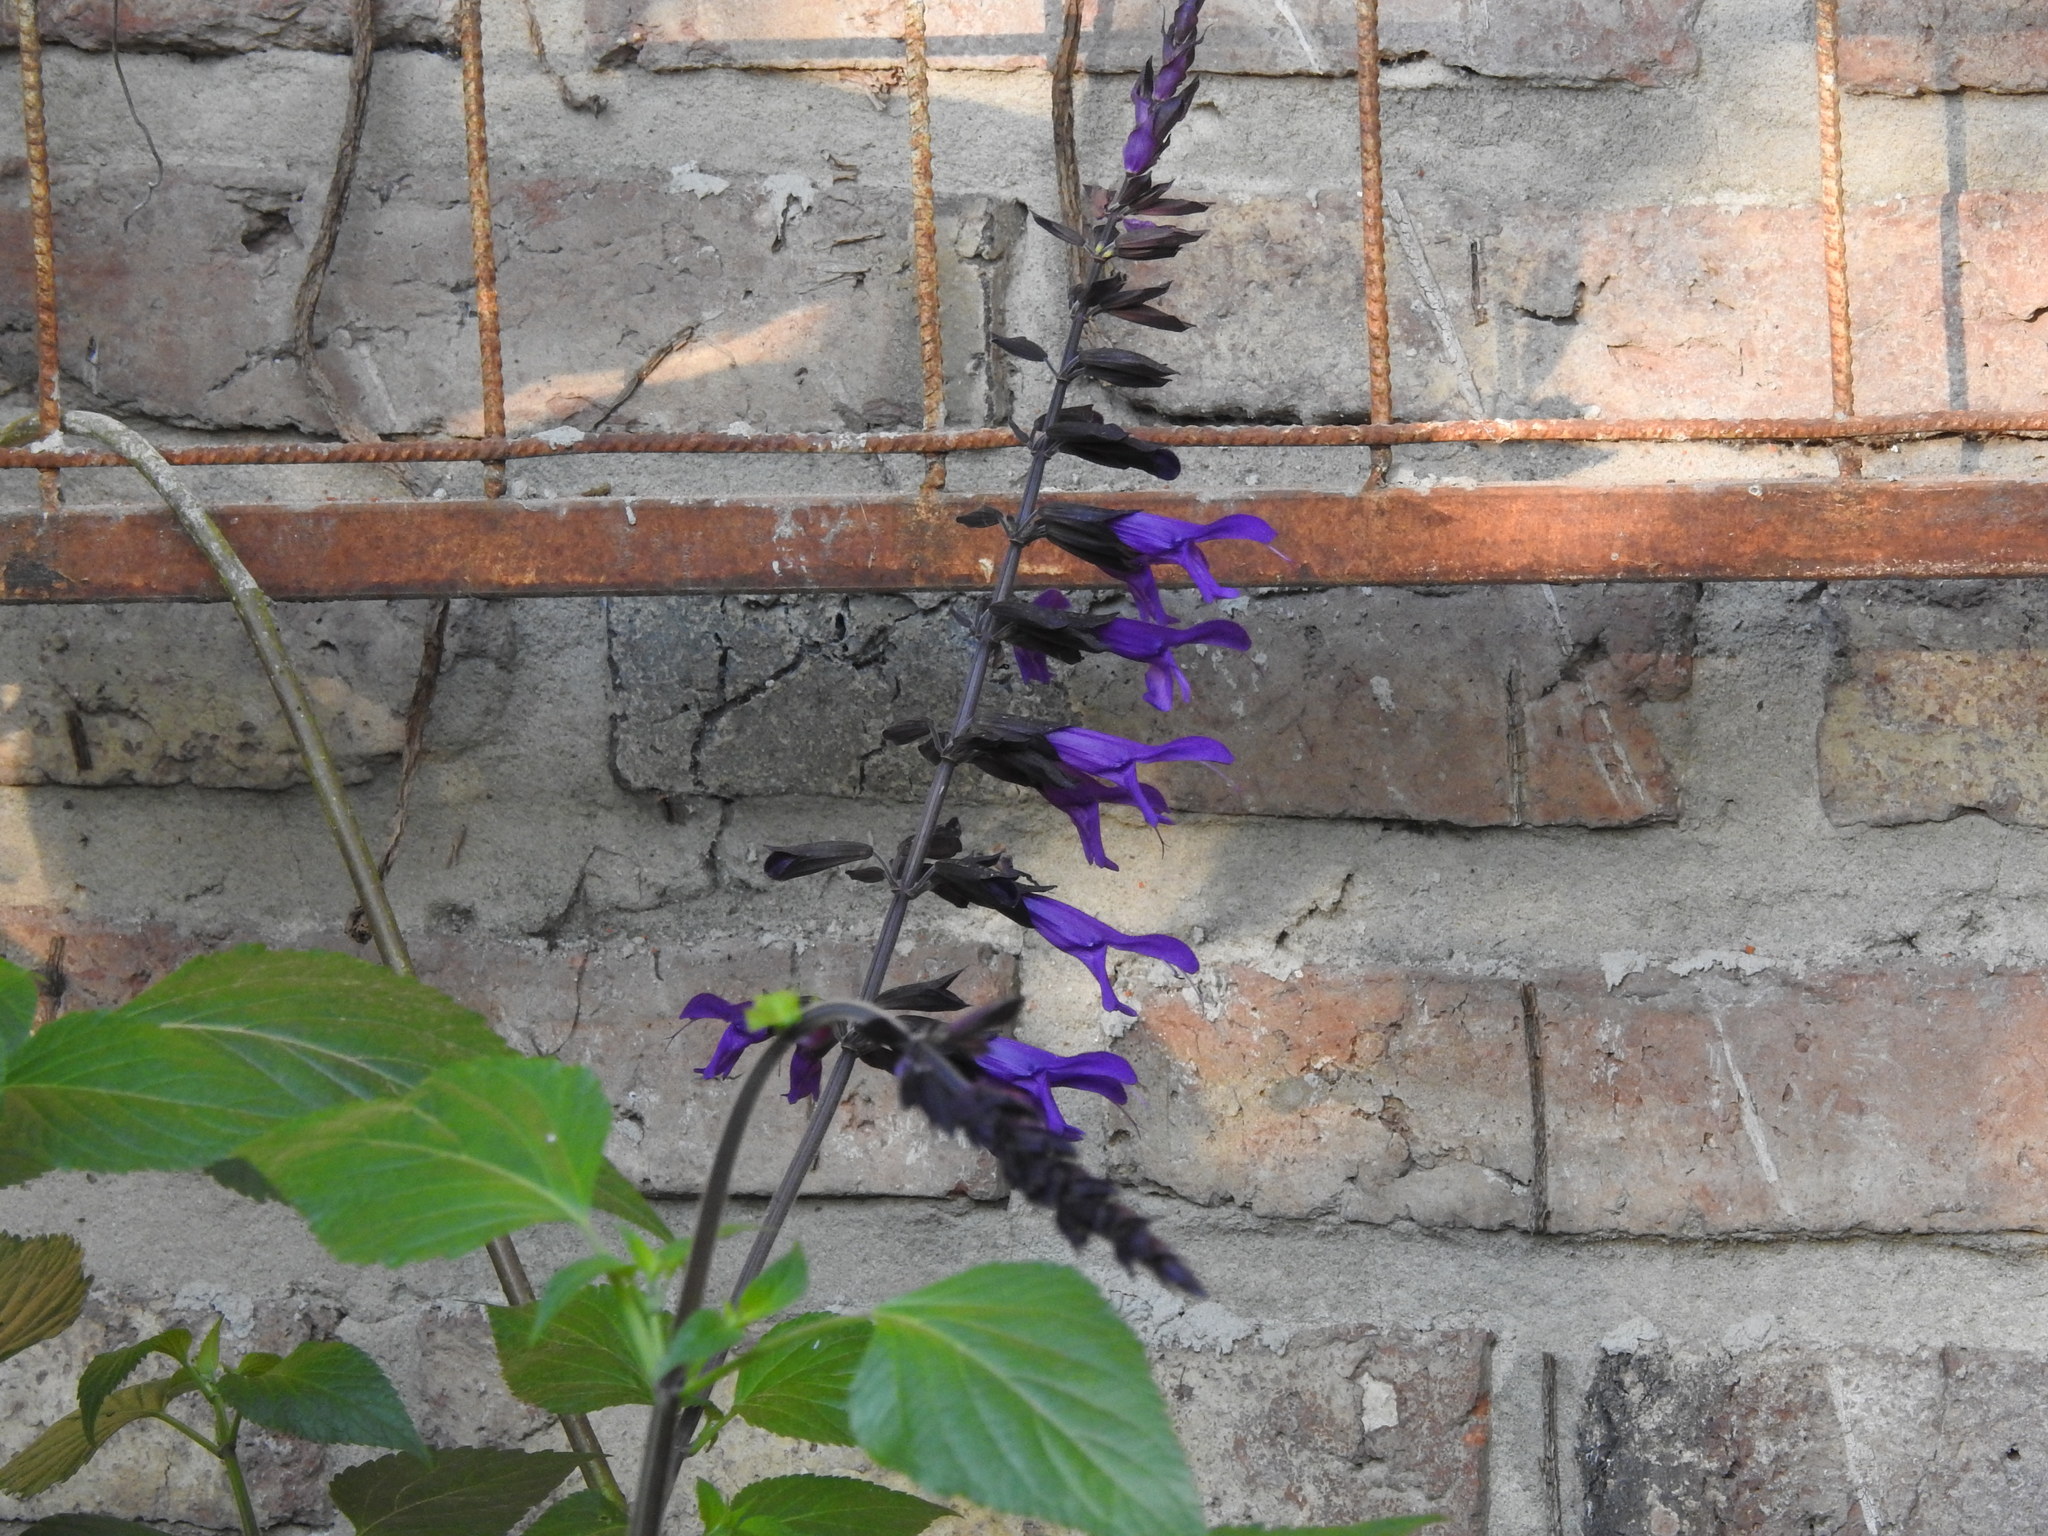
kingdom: Plantae
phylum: Tracheophyta
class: Magnoliopsida
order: Lamiales
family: Lamiaceae
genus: Salvia
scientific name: Salvia guaranitica
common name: Anise-scented sage
